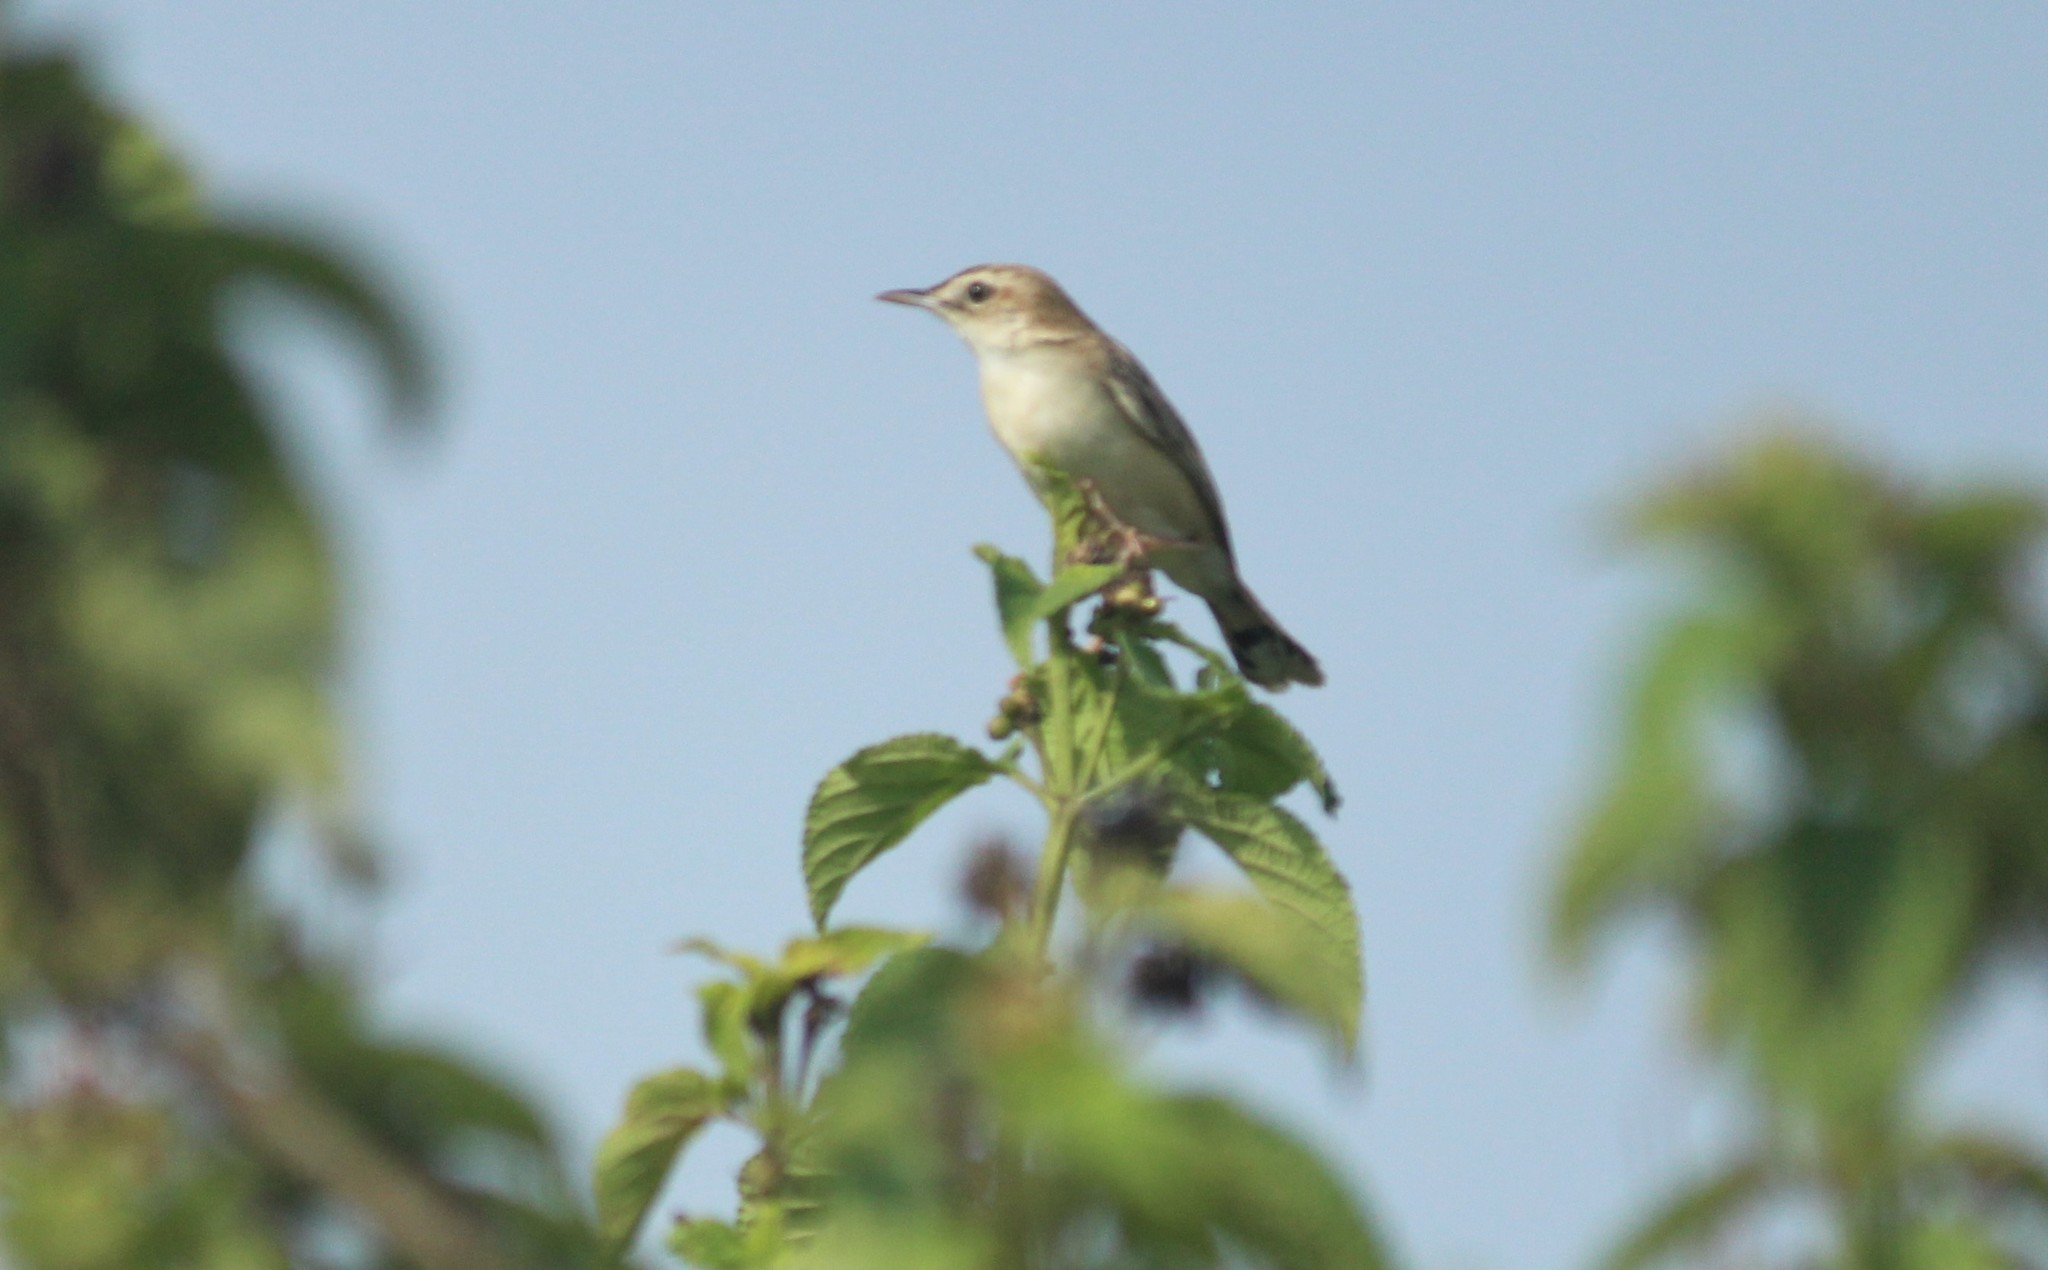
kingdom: Animalia
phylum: Chordata
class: Aves
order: Passeriformes
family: Cisticolidae
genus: Cisticola
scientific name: Cisticola juncidis
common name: Zitting cisticola
